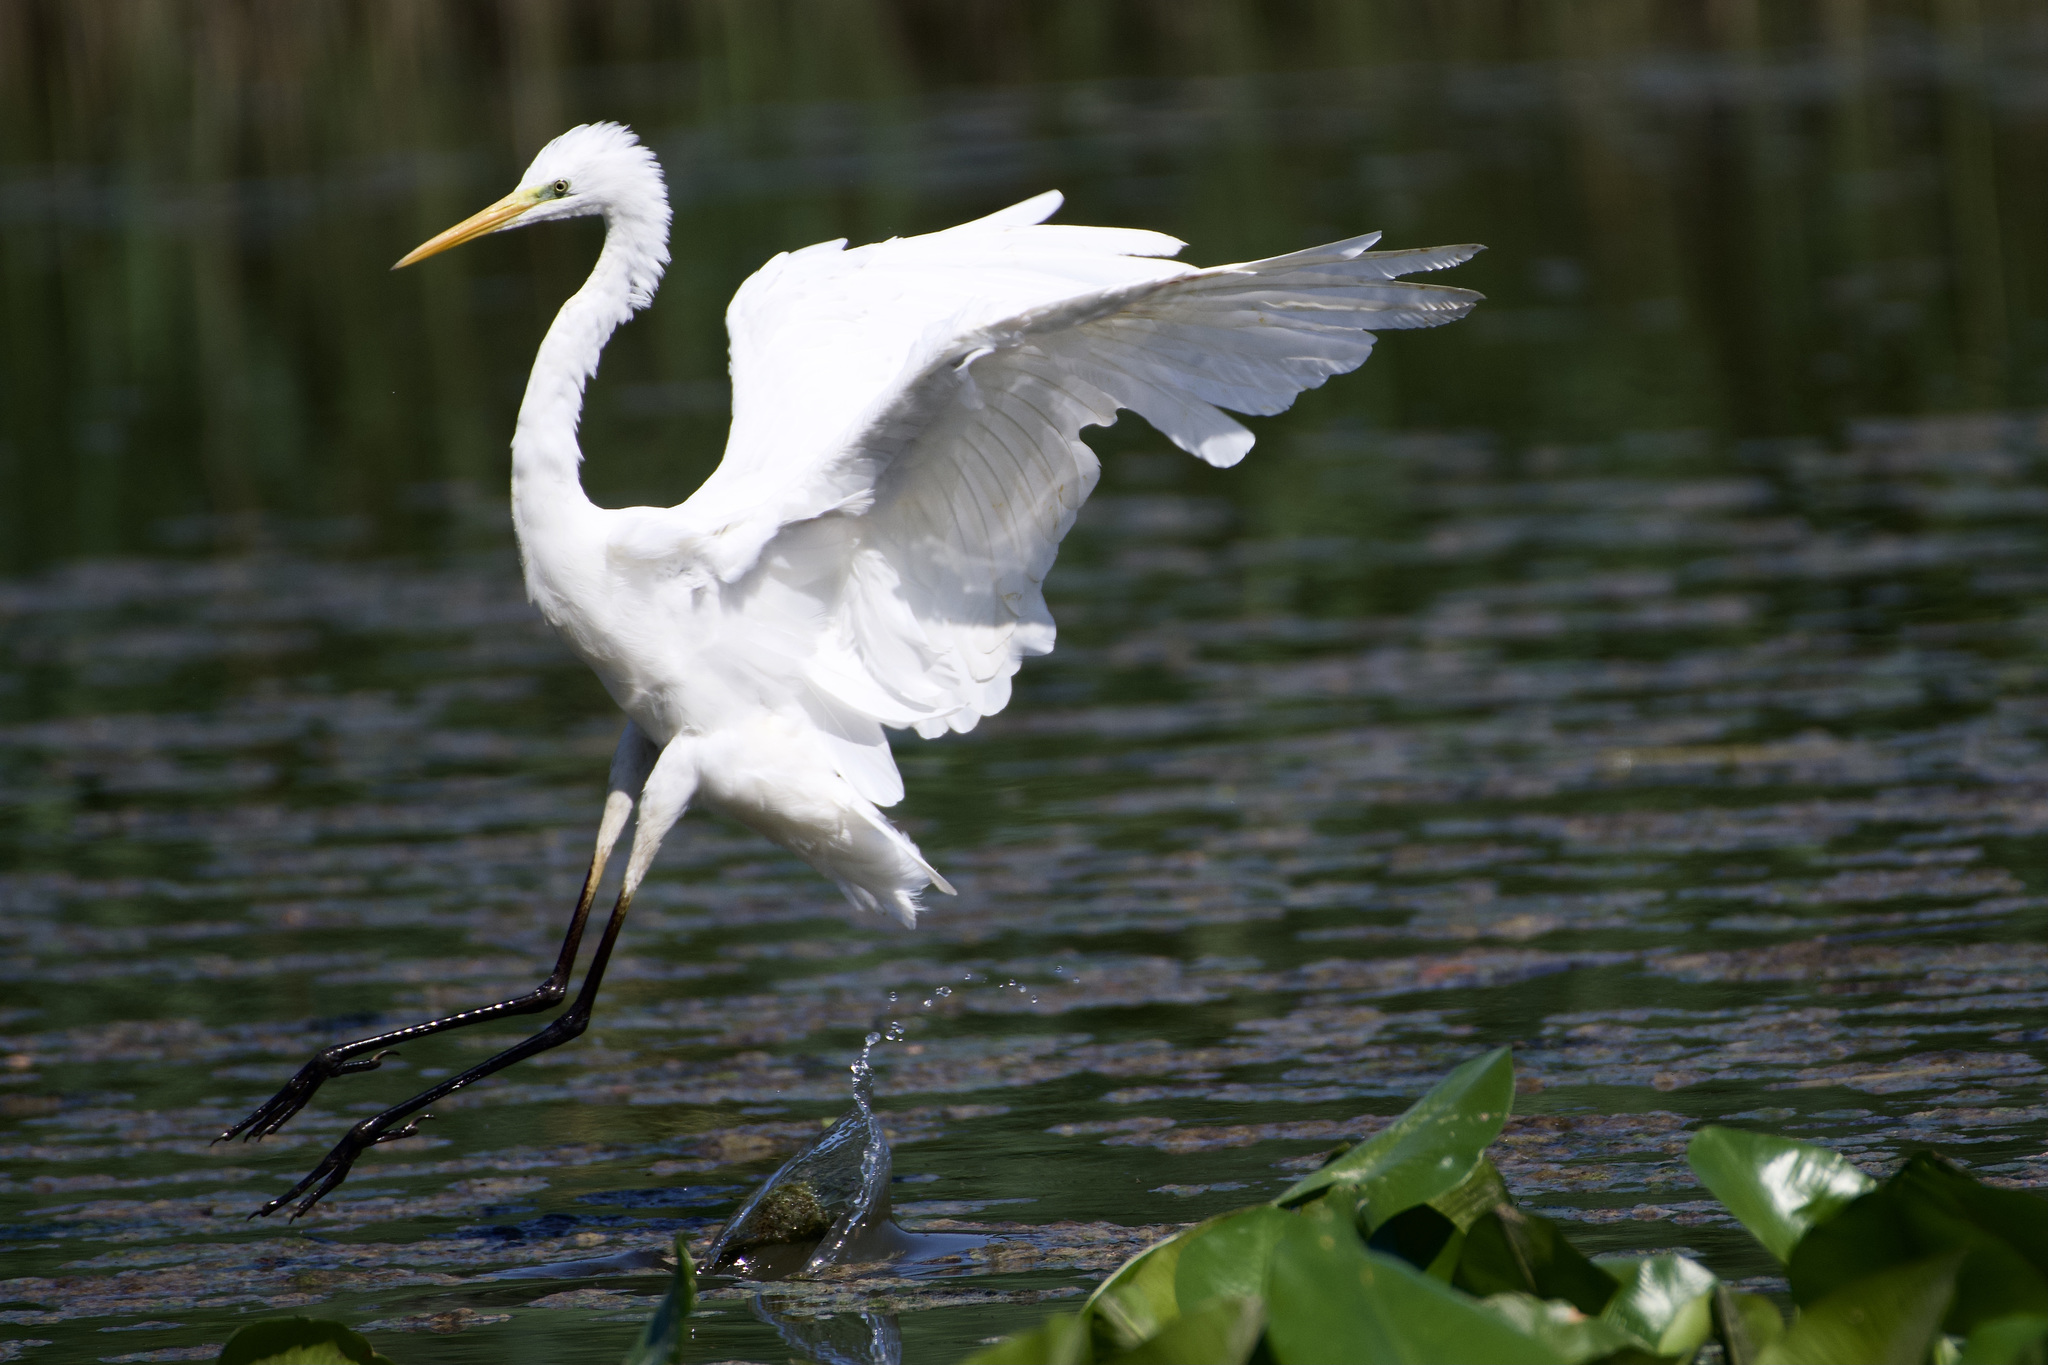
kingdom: Animalia
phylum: Chordata
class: Aves
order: Pelecaniformes
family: Ardeidae
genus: Ardea
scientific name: Ardea alba
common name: Great egret
